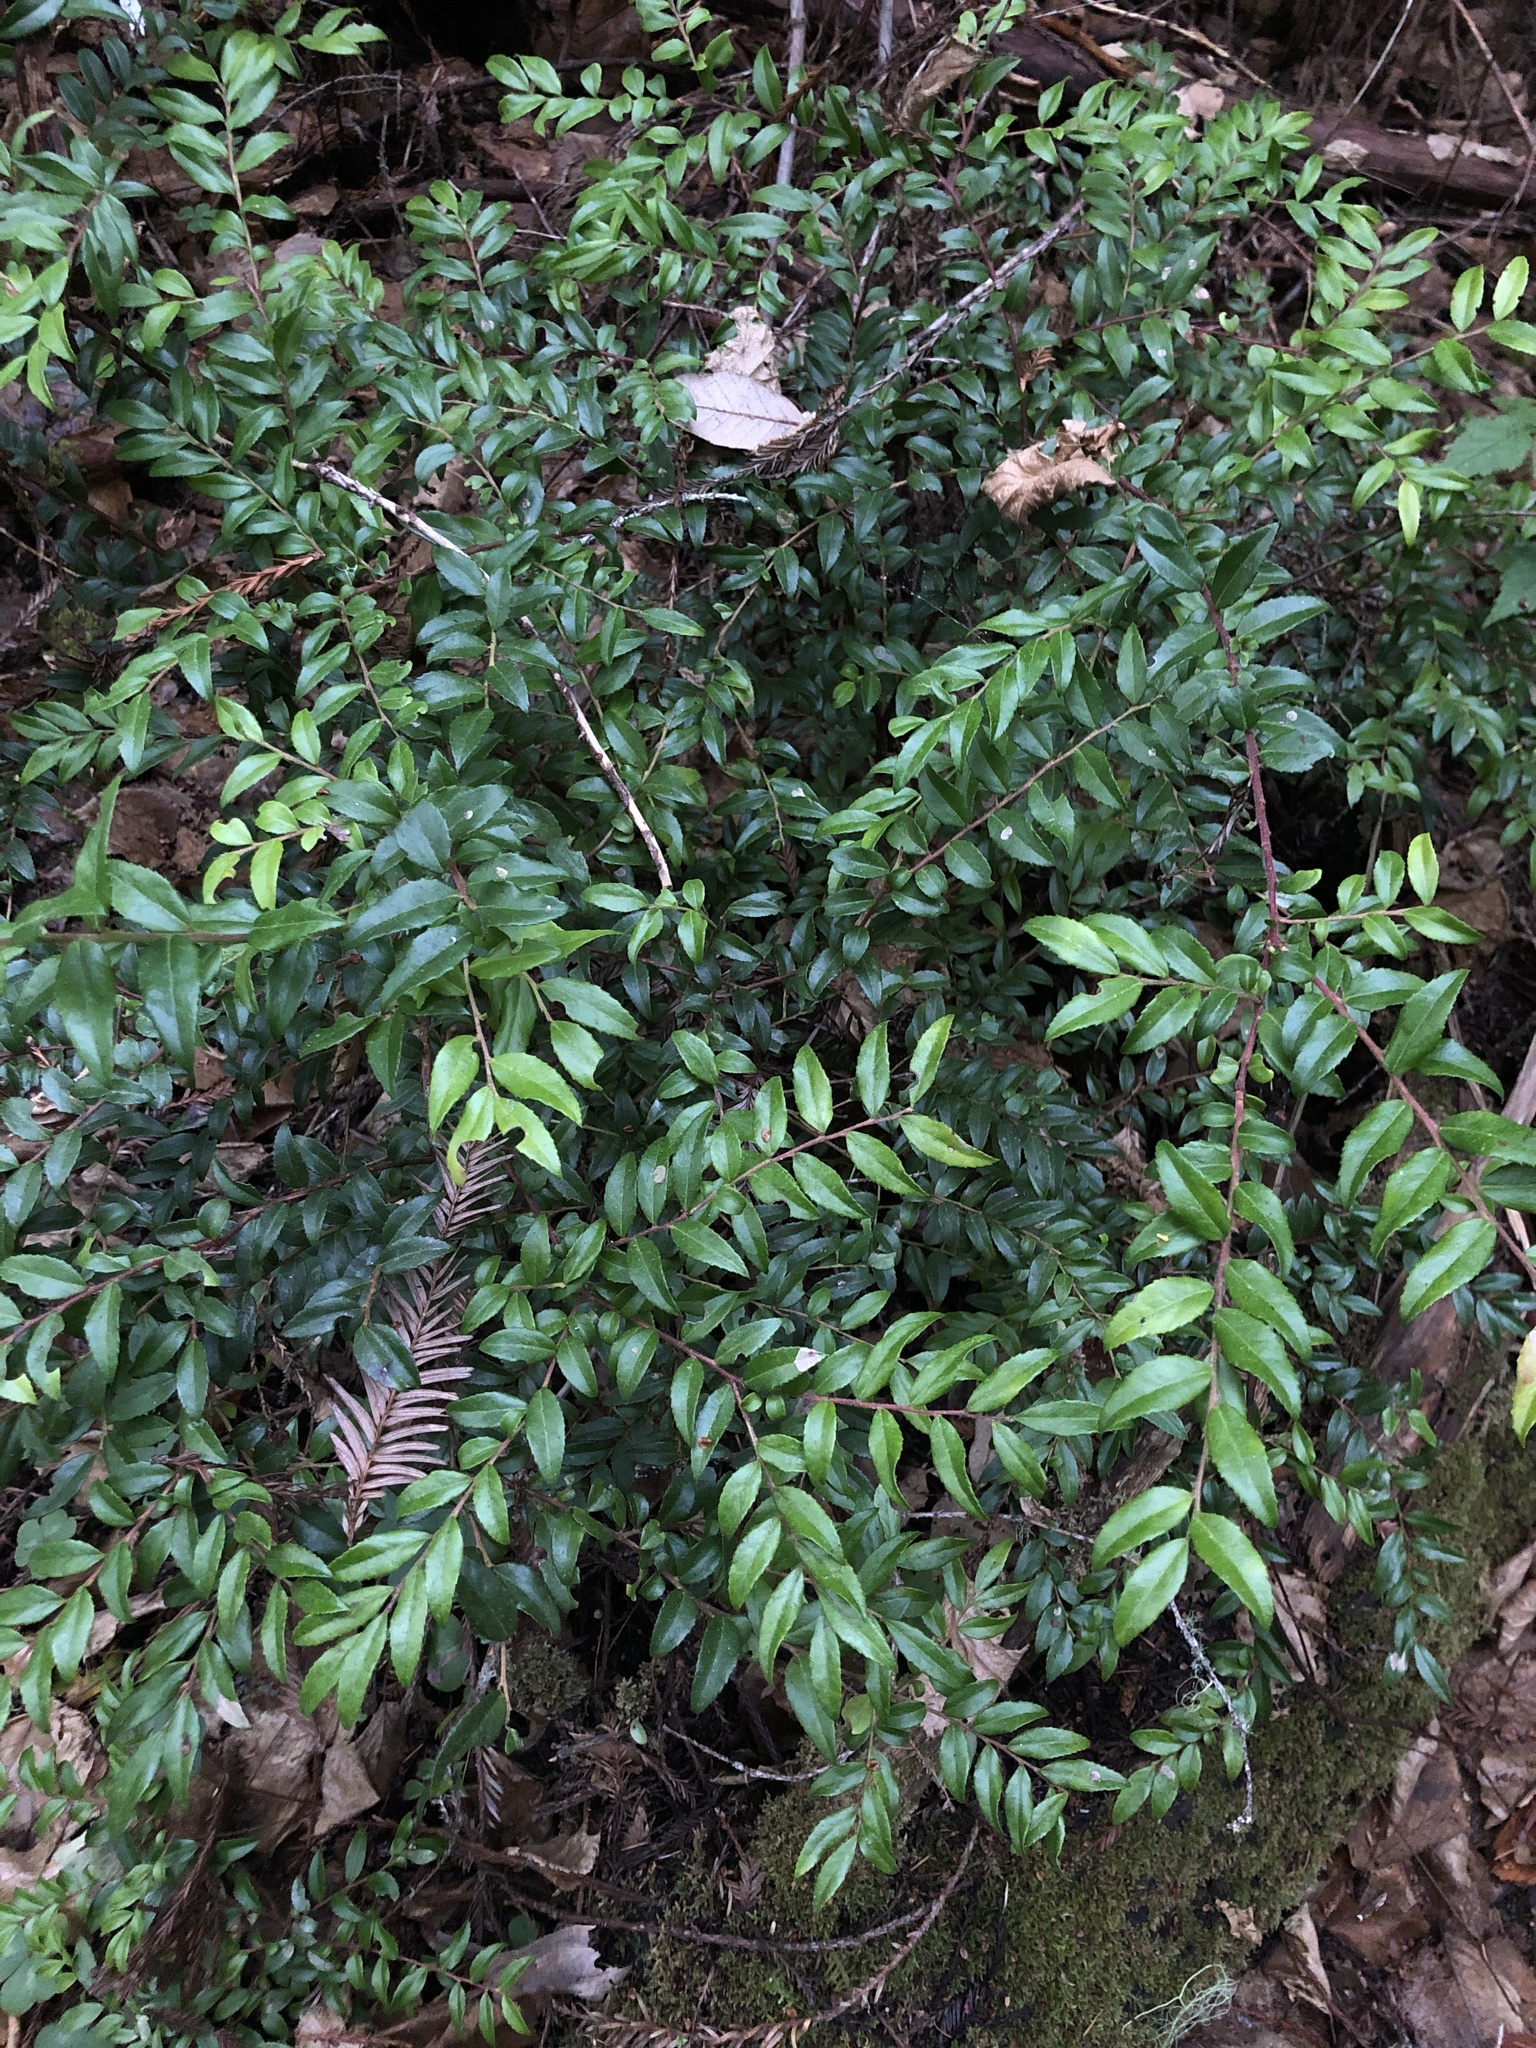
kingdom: Plantae
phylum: Tracheophyta
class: Magnoliopsida
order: Ericales
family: Ericaceae
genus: Vaccinium
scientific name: Vaccinium ovatum
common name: California-huckleberry
